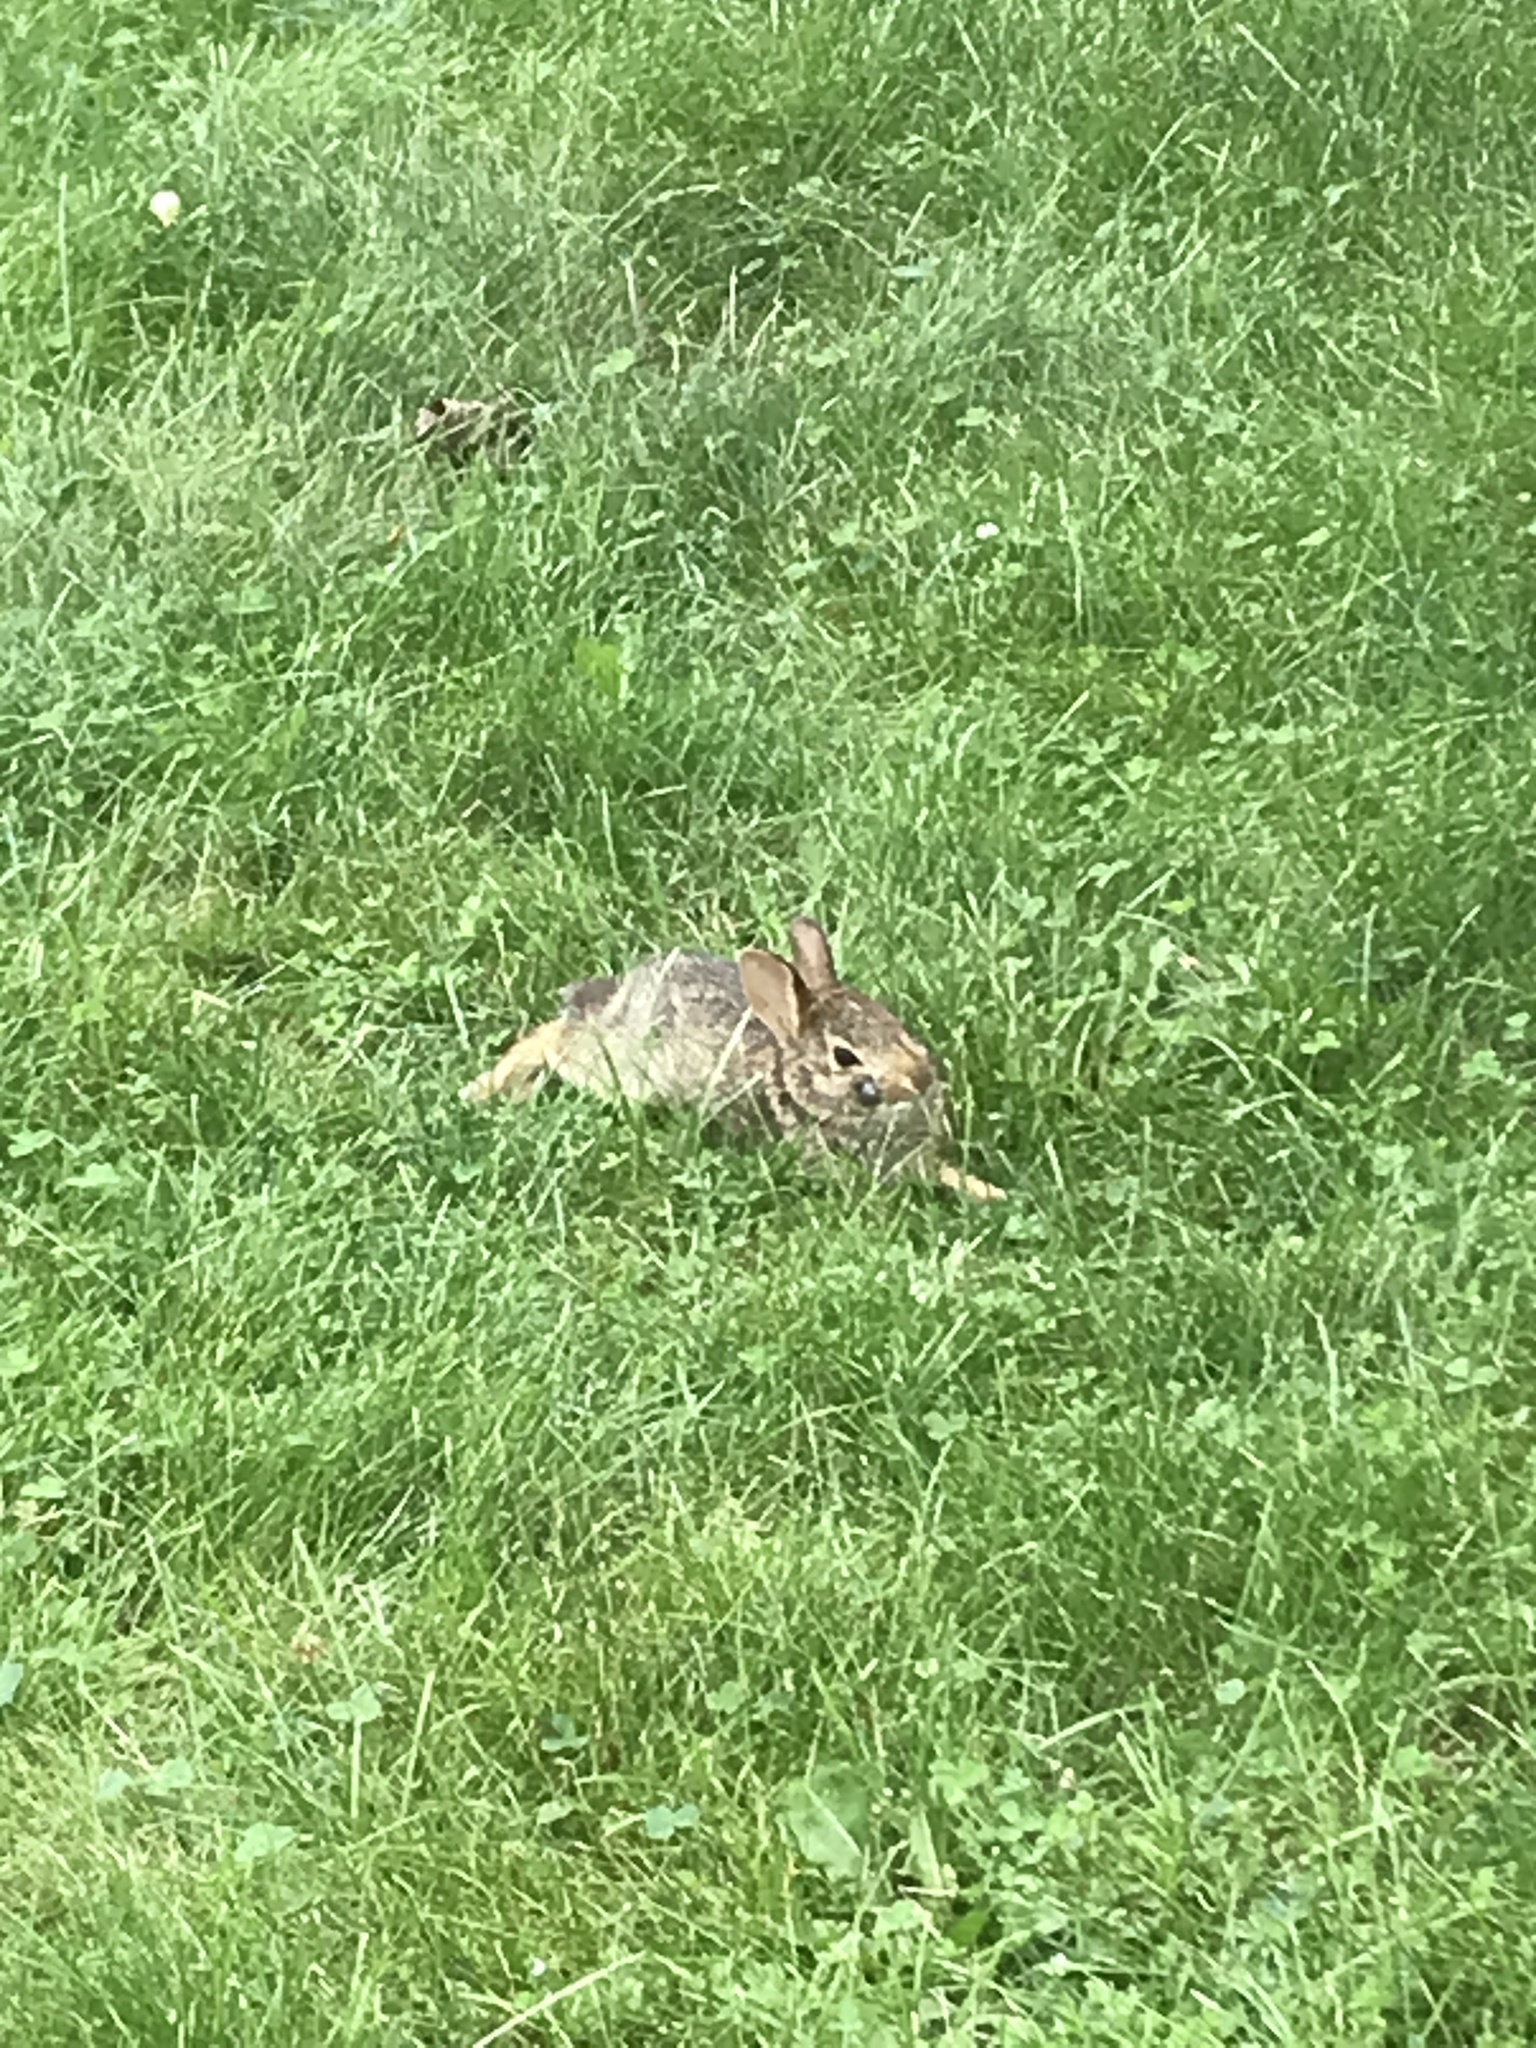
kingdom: Animalia
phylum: Chordata
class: Mammalia
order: Lagomorpha
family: Leporidae
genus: Sylvilagus
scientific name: Sylvilagus floridanus
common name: Eastern cottontail
